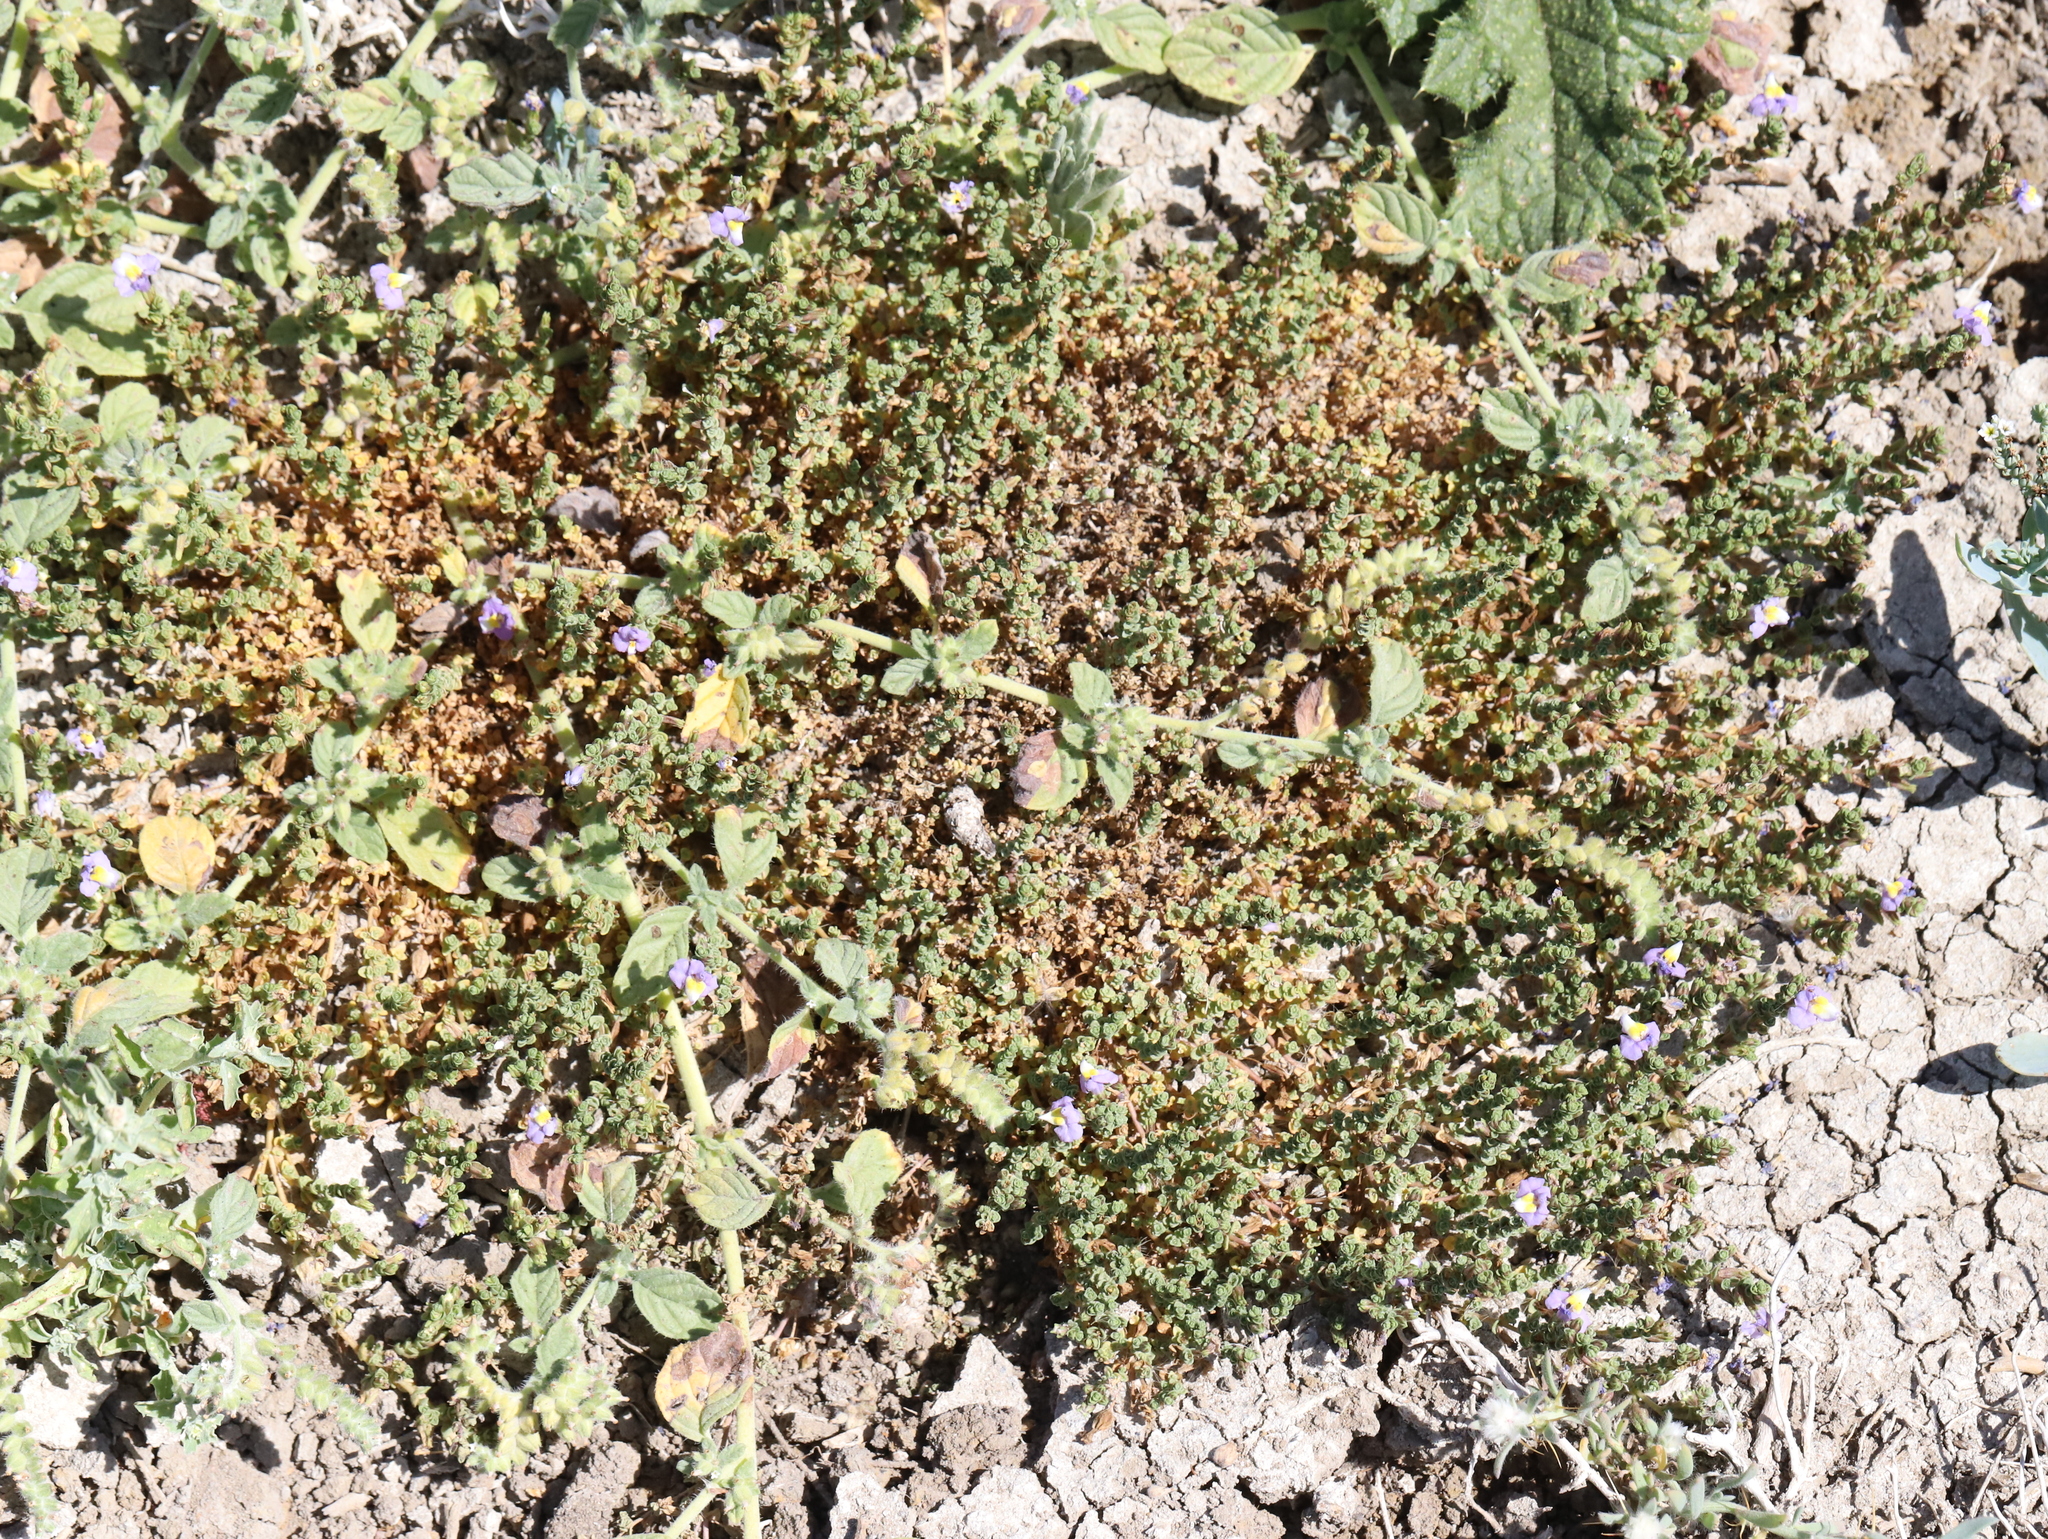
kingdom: Plantae
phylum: Tracheophyta
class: Magnoliopsida
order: Lamiales
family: Phrymaceae
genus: Thyridia
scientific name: Thyridia repens
